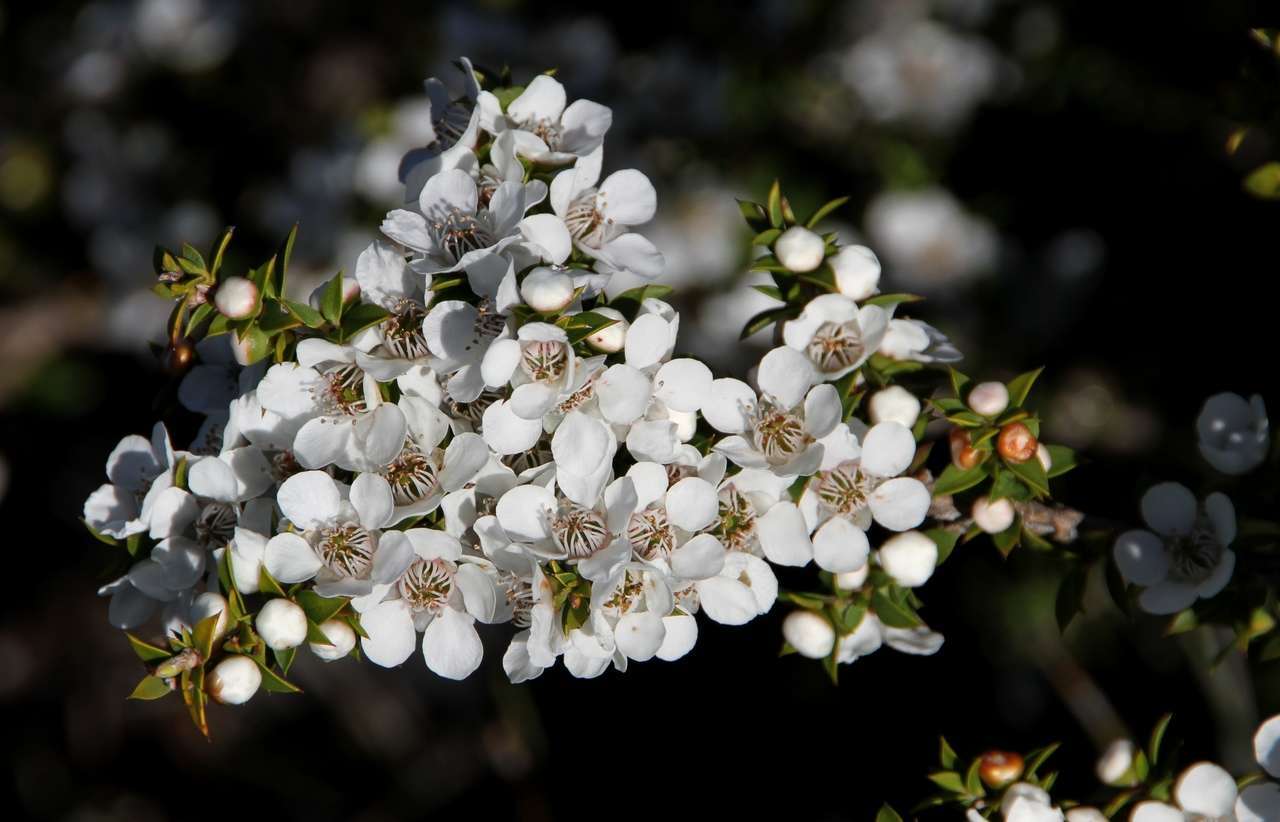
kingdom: Plantae
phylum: Tracheophyta
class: Magnoliopsida
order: Myrtales
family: Myrtaceae
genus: Leptospermum
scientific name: Leptospermum scoparium
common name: Broom tea-tree
